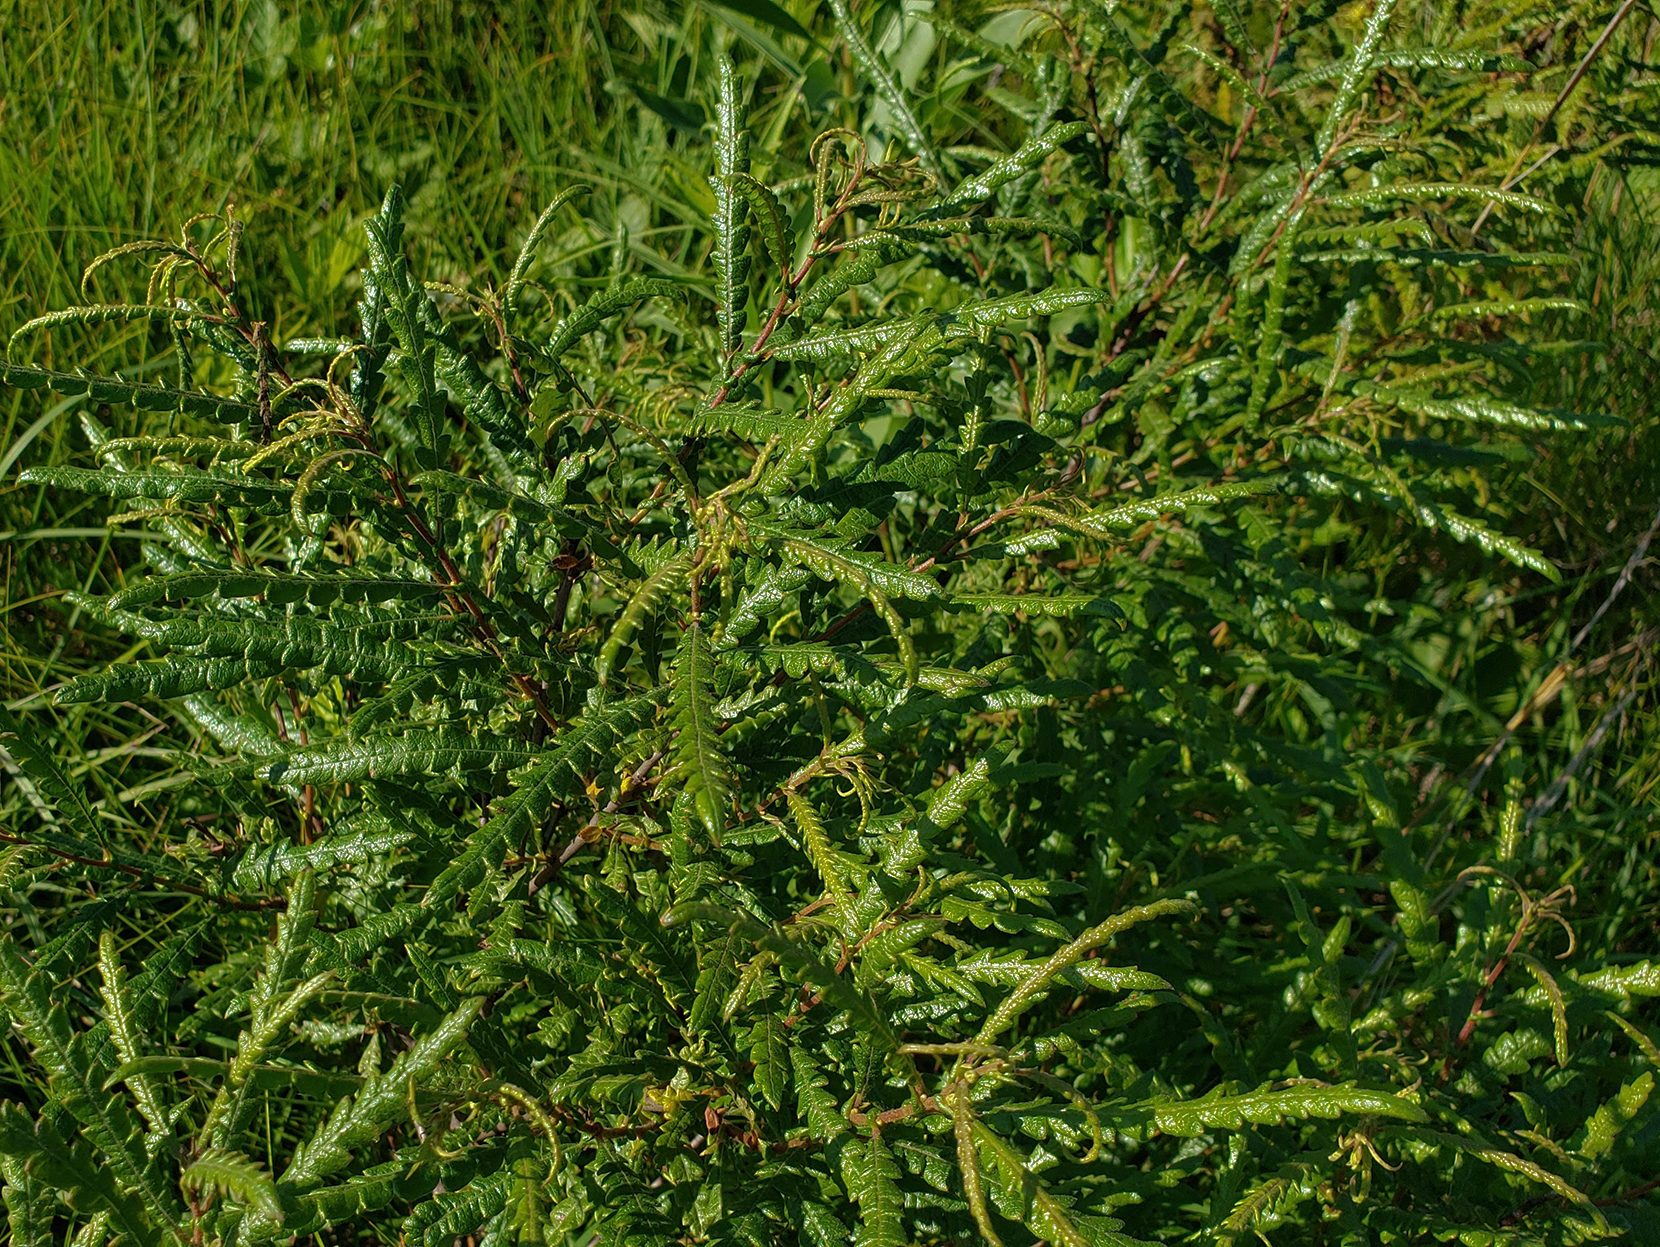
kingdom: Plantae
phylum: Tracheophyta
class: Magnoliopsida
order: Fagales
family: Myricaceae
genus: Comptonia
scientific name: Comptonia peregrina
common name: Sweet-fern
